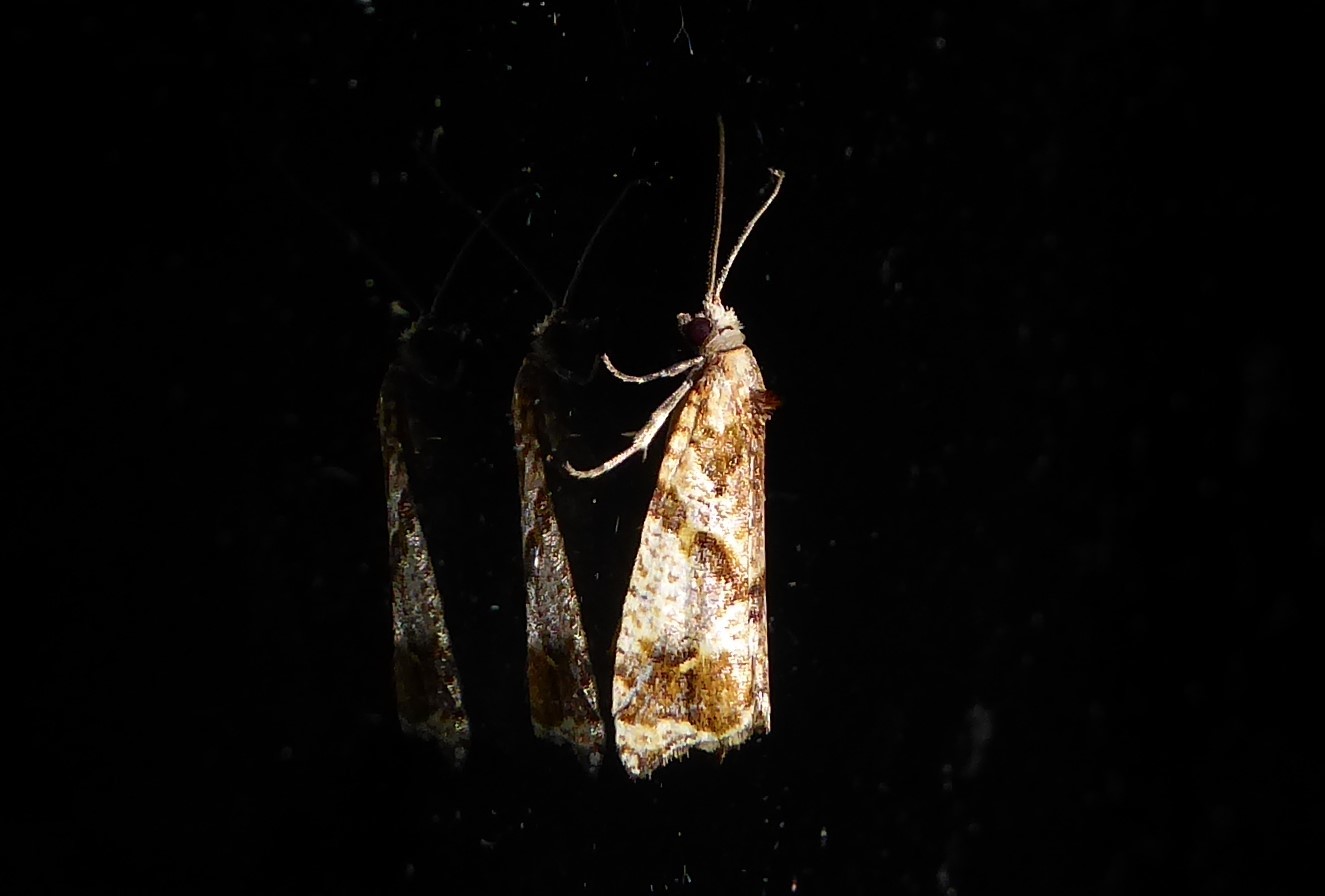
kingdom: Animalia
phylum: Arthropoda
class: Insecta
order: Lepidoptera
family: Tortricidae
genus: Pyrgotis
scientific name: Pyrgotis plagiatana
